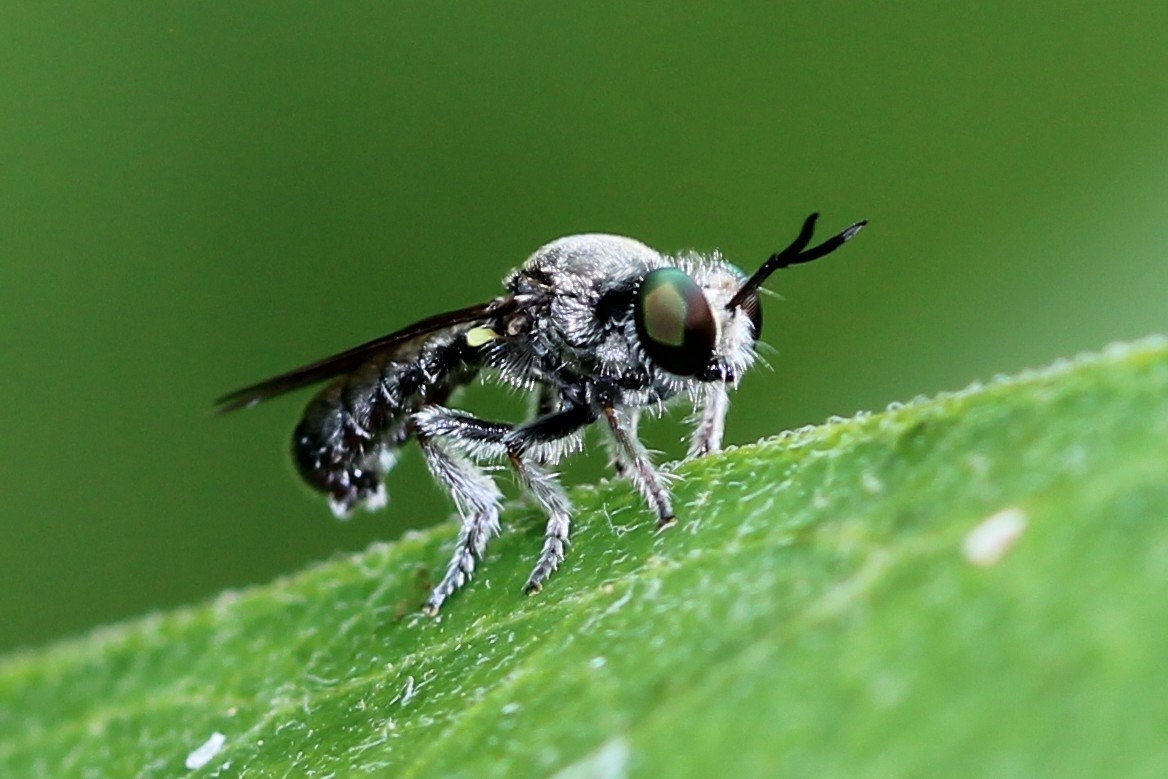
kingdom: Animalia
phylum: Arthropoda
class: Insecta
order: Diptera
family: Asilidae
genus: Cerotainia
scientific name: Cerotainia albipilosa
